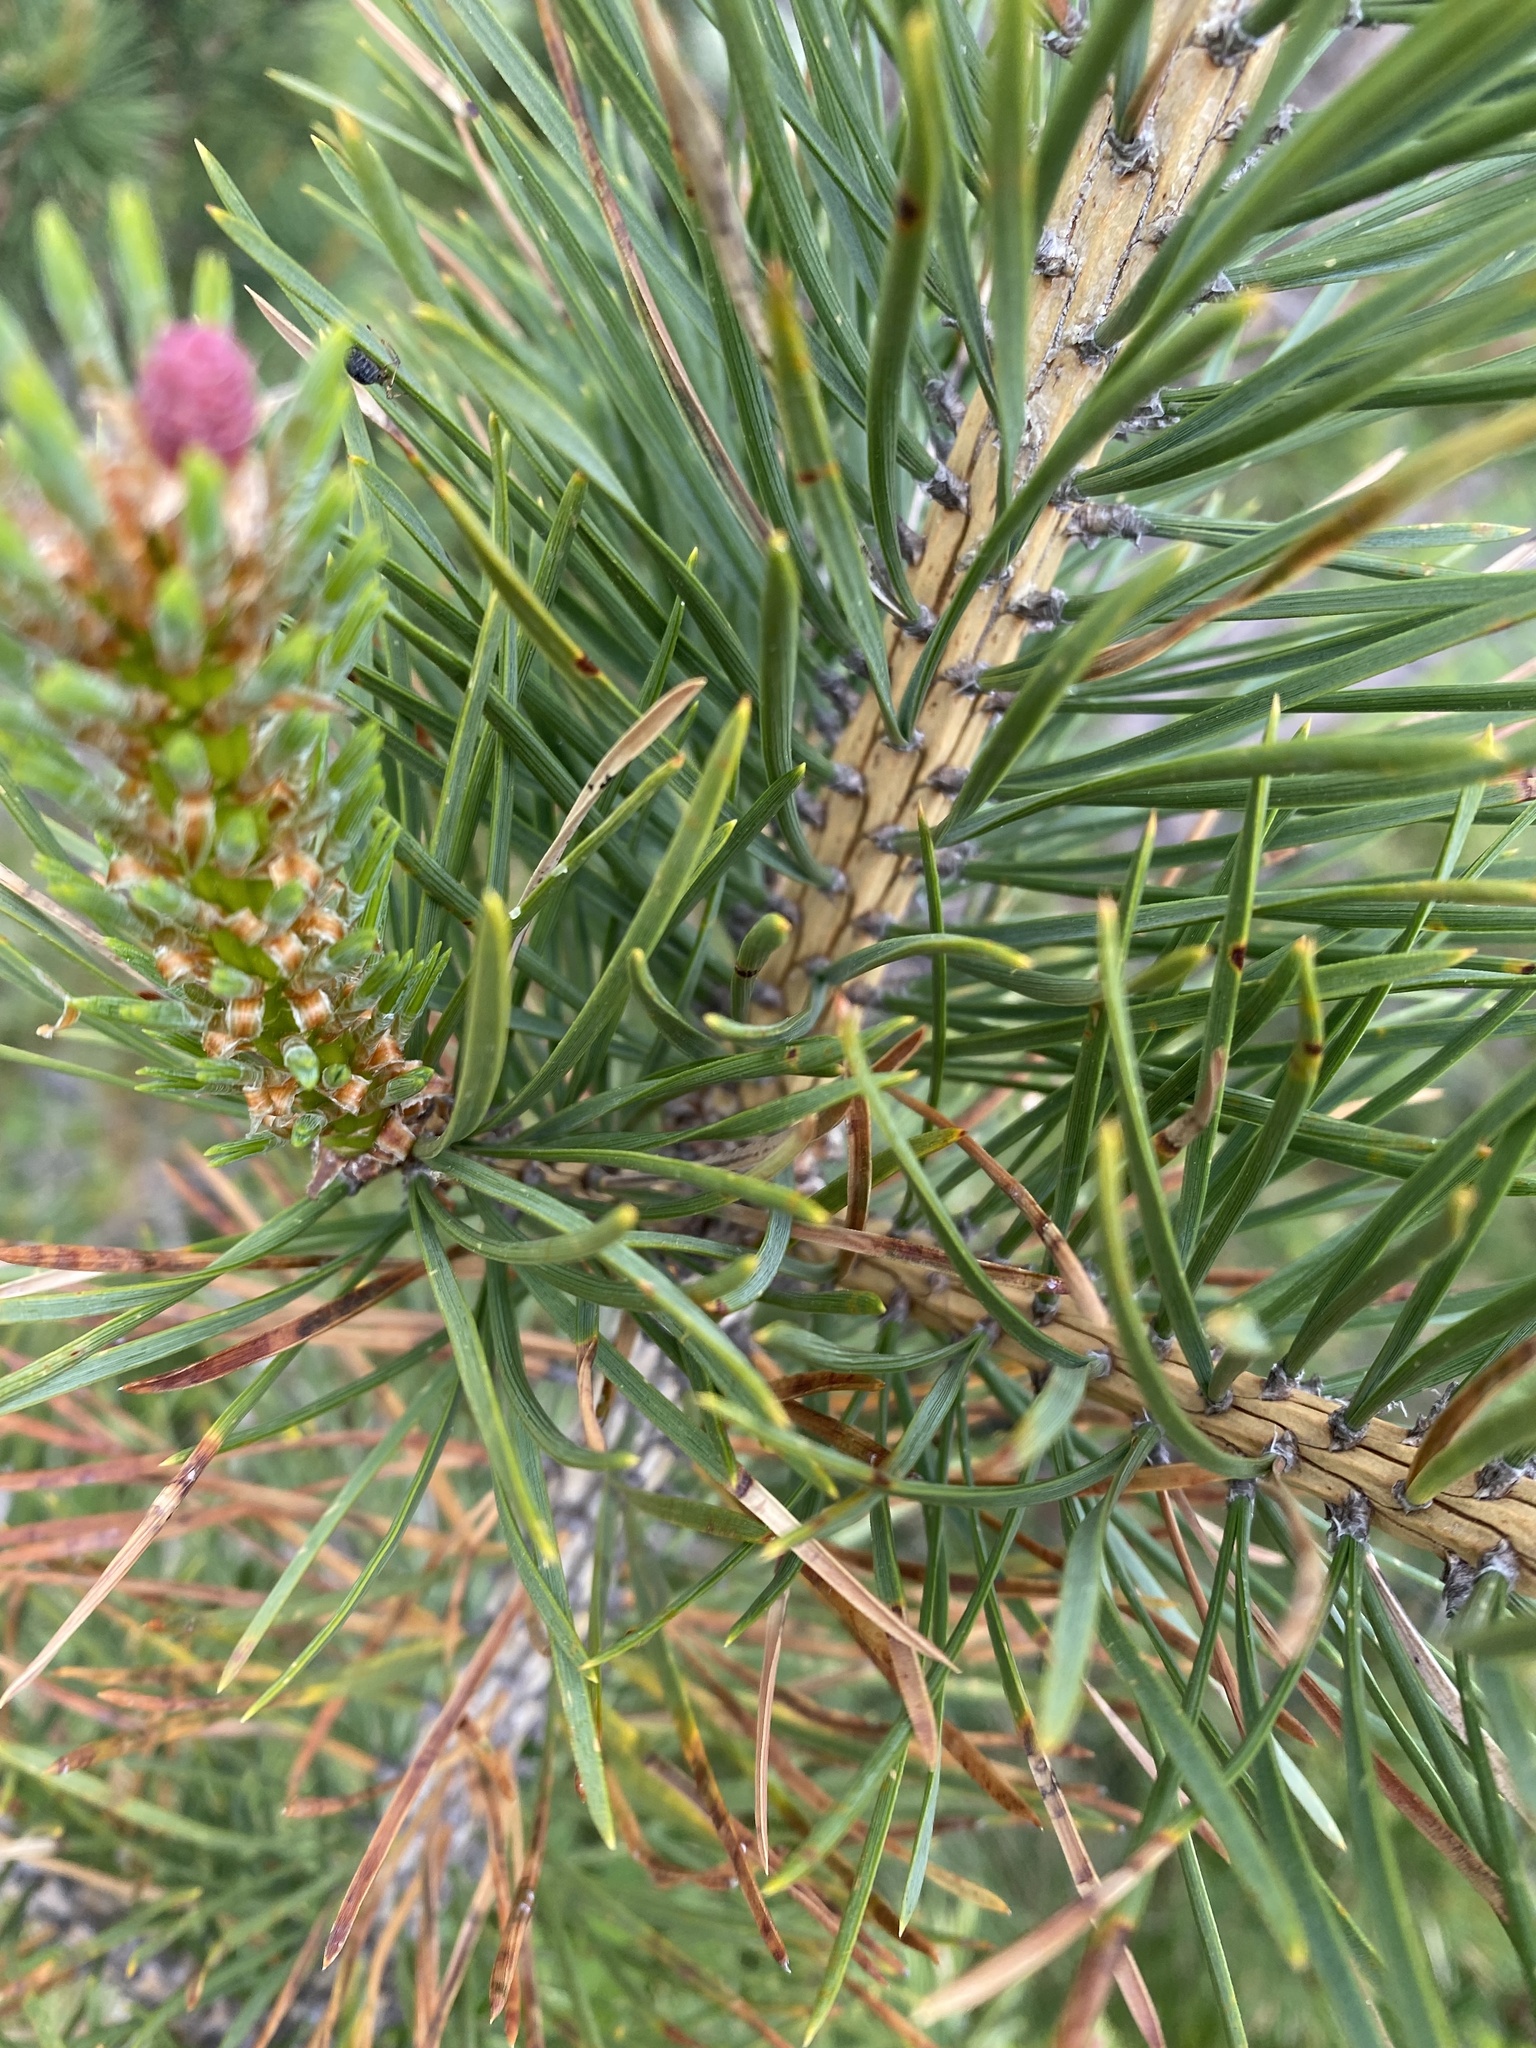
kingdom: Plantae
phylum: Tracheophyta
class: Pinopsida
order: Pinales
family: Pinaceae
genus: Pinus
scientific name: Pinus sylvestris
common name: Scots pine
